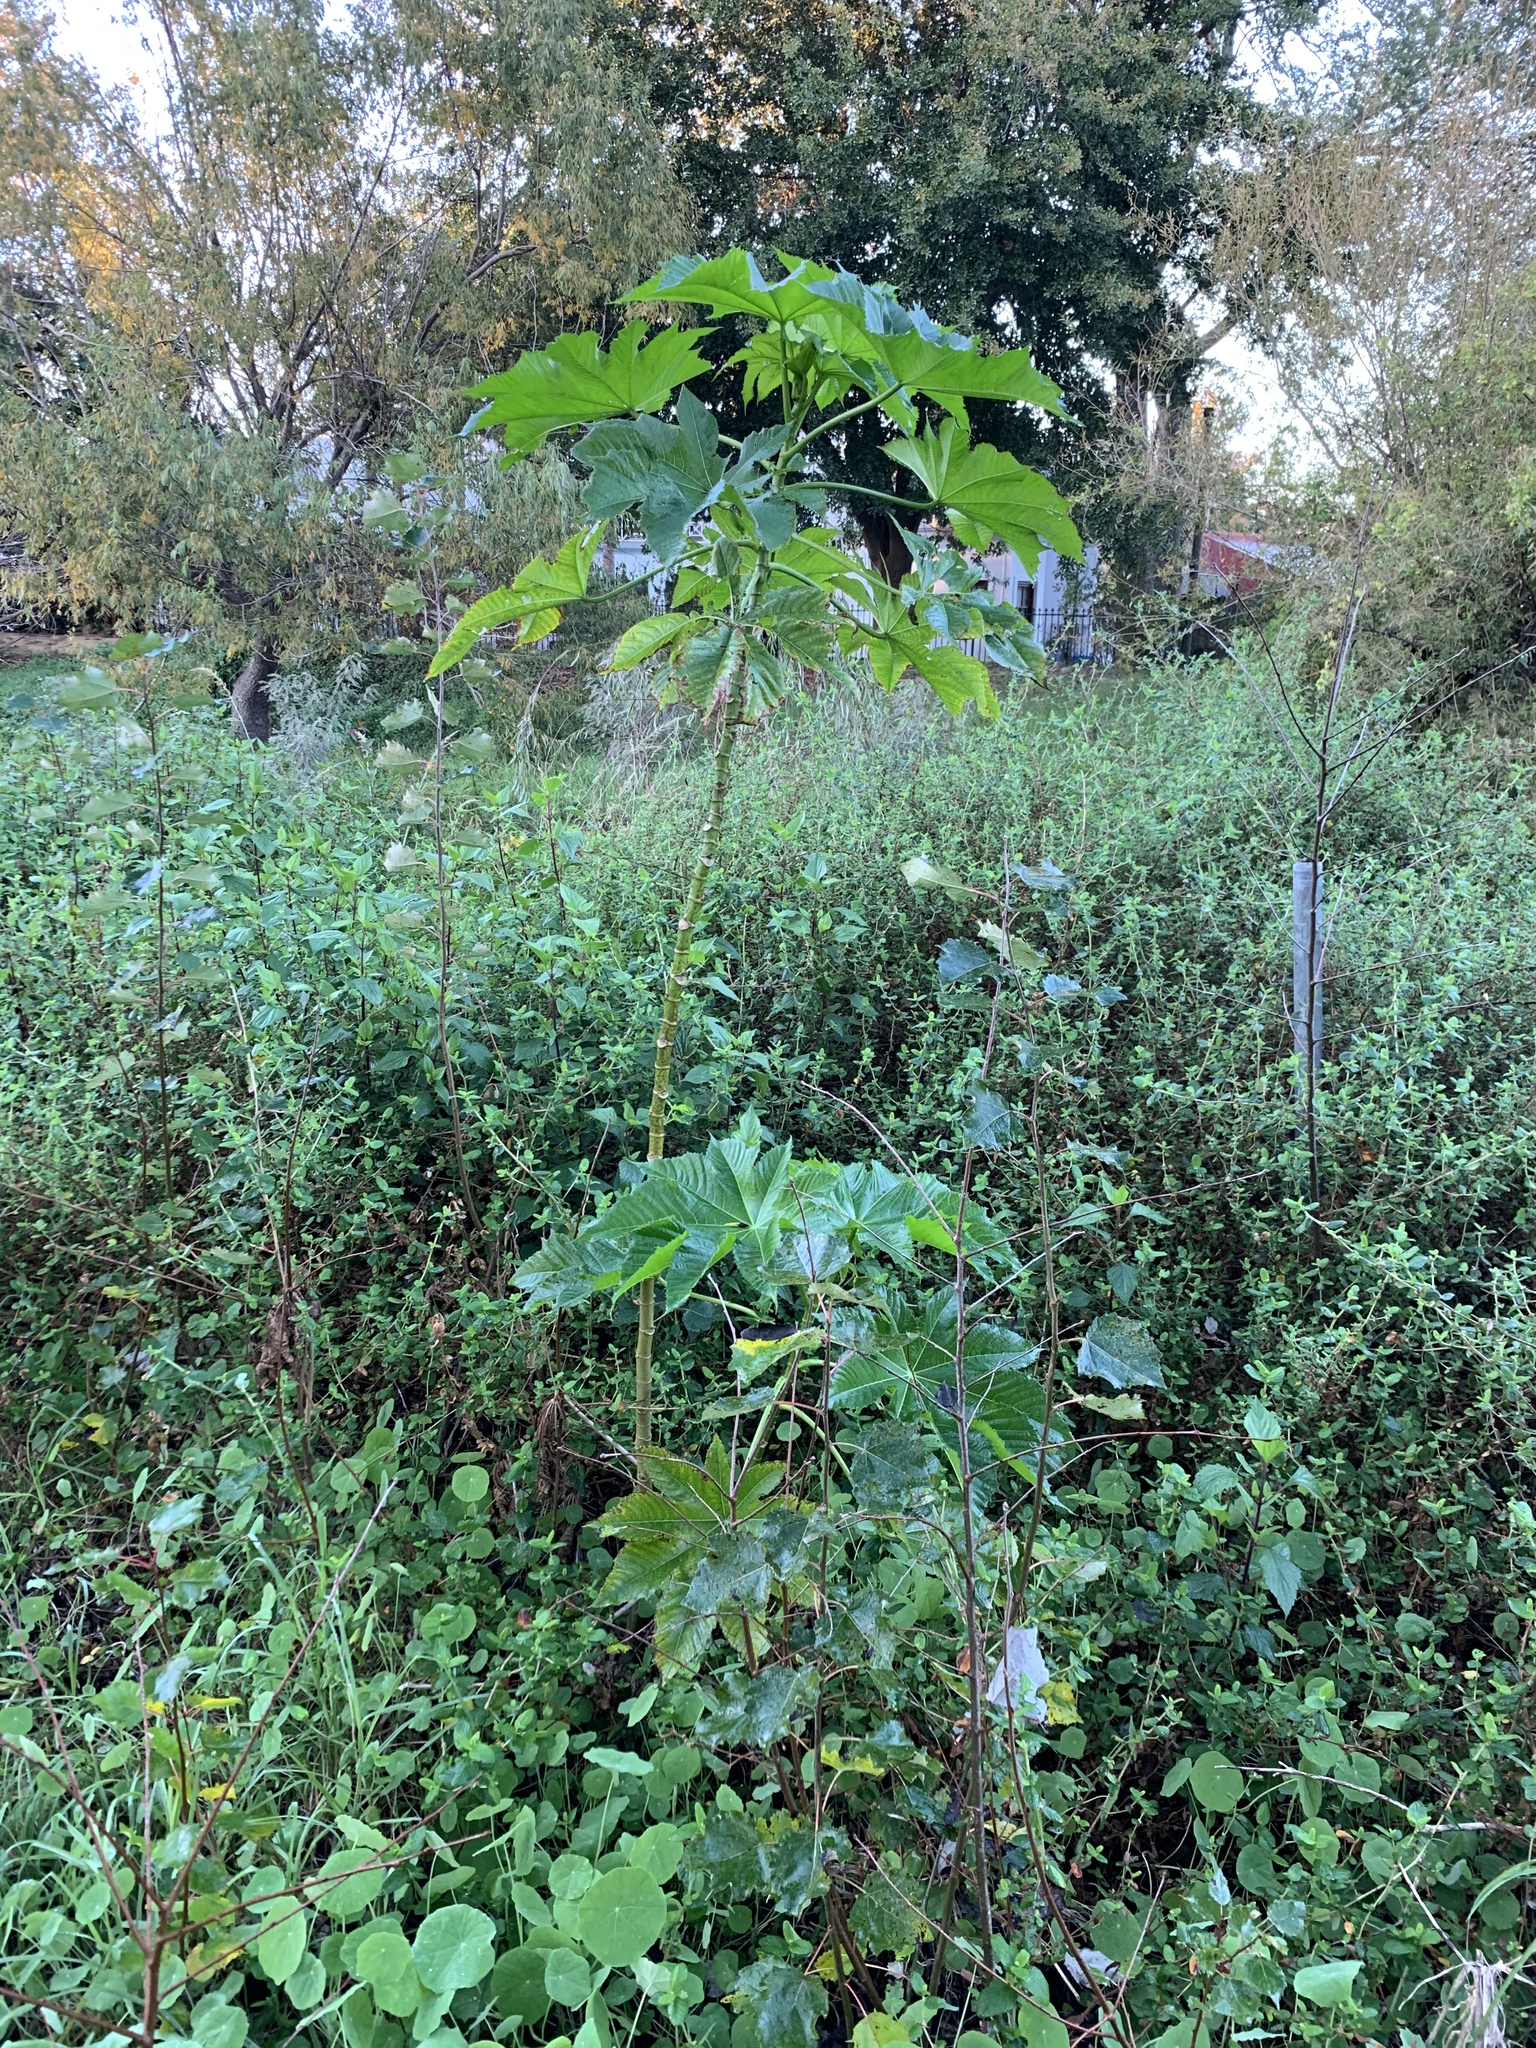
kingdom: Plantae
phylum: Tracheophyta
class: Magnoliopsida
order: Malpighiales
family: Euphorbiaceae
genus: Ricinus
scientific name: Ricinus communis
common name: Castor-oil-plant
